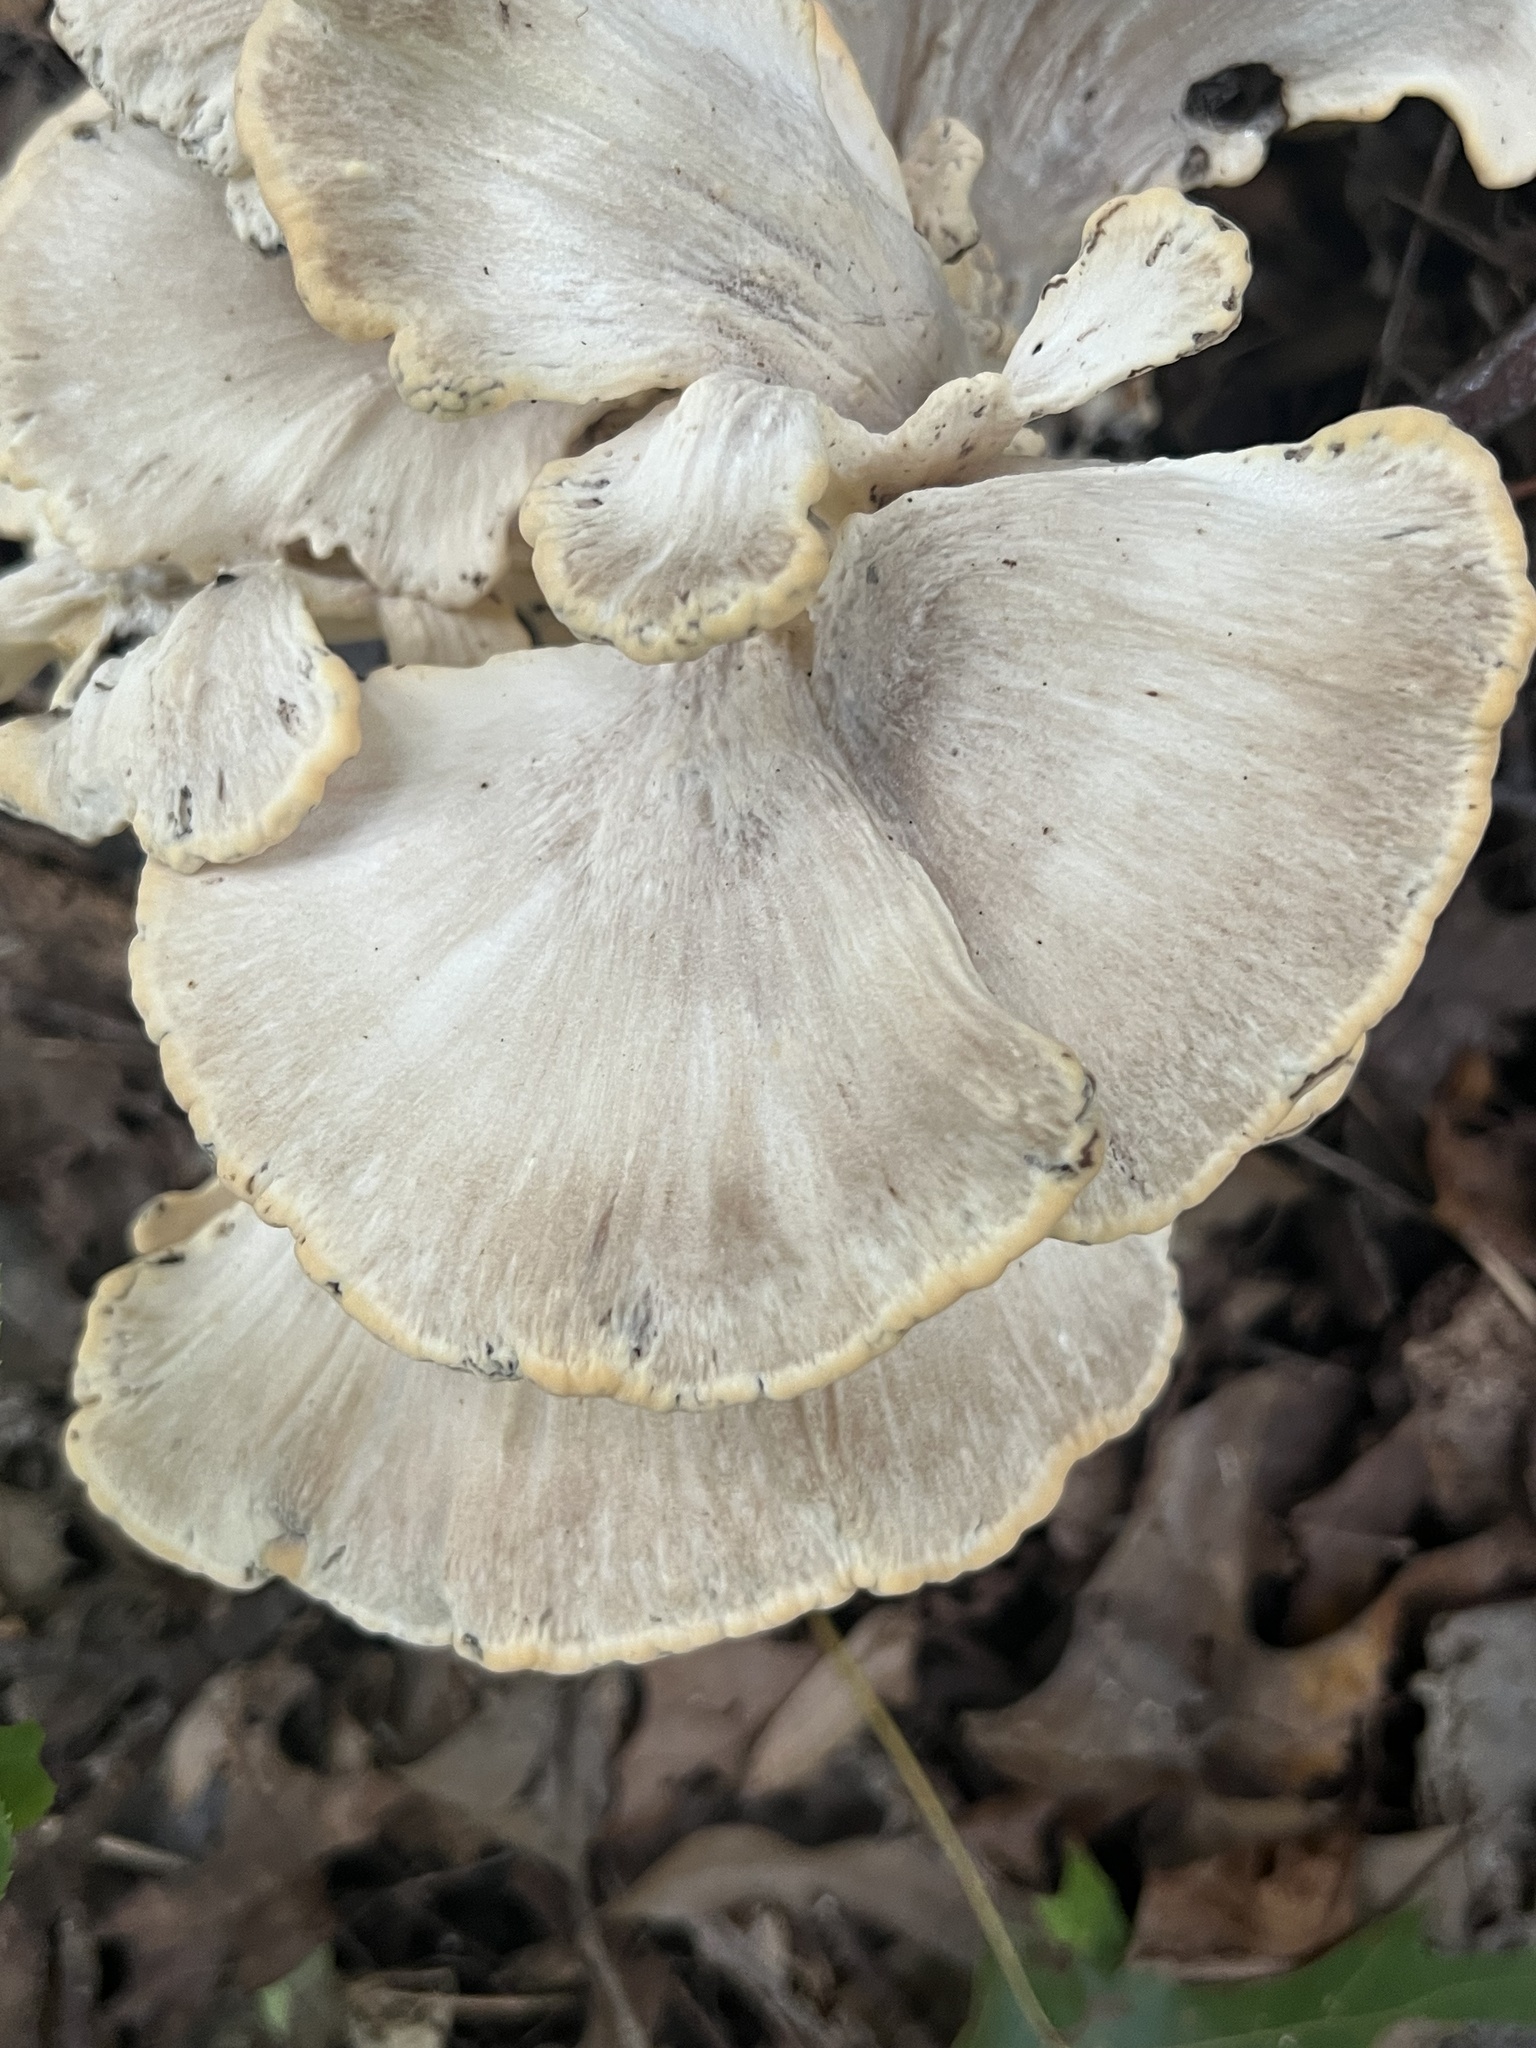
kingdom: Fungi
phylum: Basidiomycota
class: Agaricomycetes
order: Polyporales
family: Meripilaceae
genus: Meripilus
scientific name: Meripilus sumstinei
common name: Black-staining polypore
